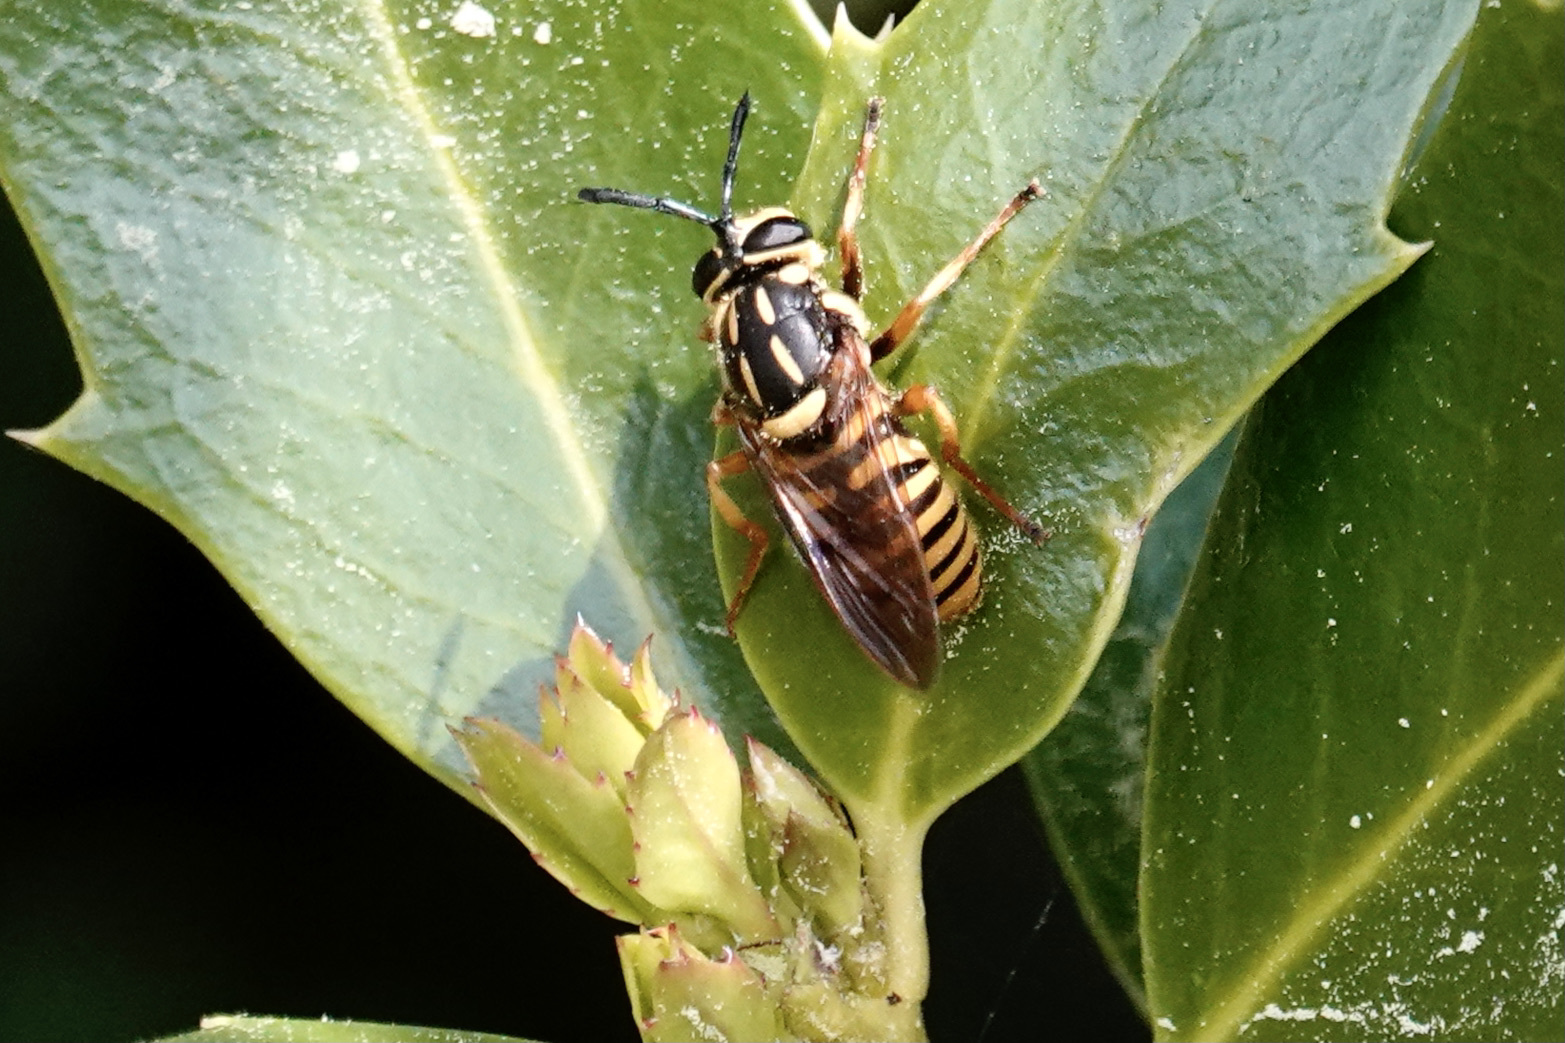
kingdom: Animalia
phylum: Arthropoda
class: Insecta
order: Diptera
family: Syrphidae
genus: Sphecomyia
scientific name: Sphecomyia vittata
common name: Long-horned yellowjacket fly
